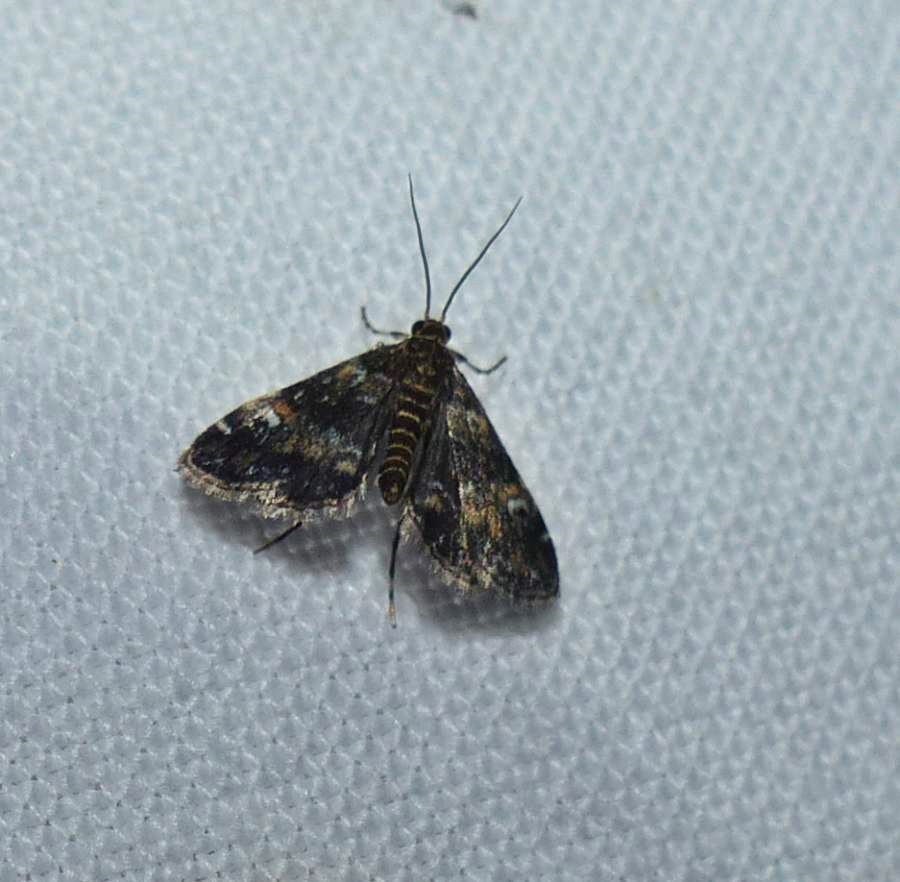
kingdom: Animalia
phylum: Arthropoda
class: Insecta
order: Lepidoptera
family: Crambidae
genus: Elophila
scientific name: Elophila obliteralis
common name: Waterlily leafcutter moth
